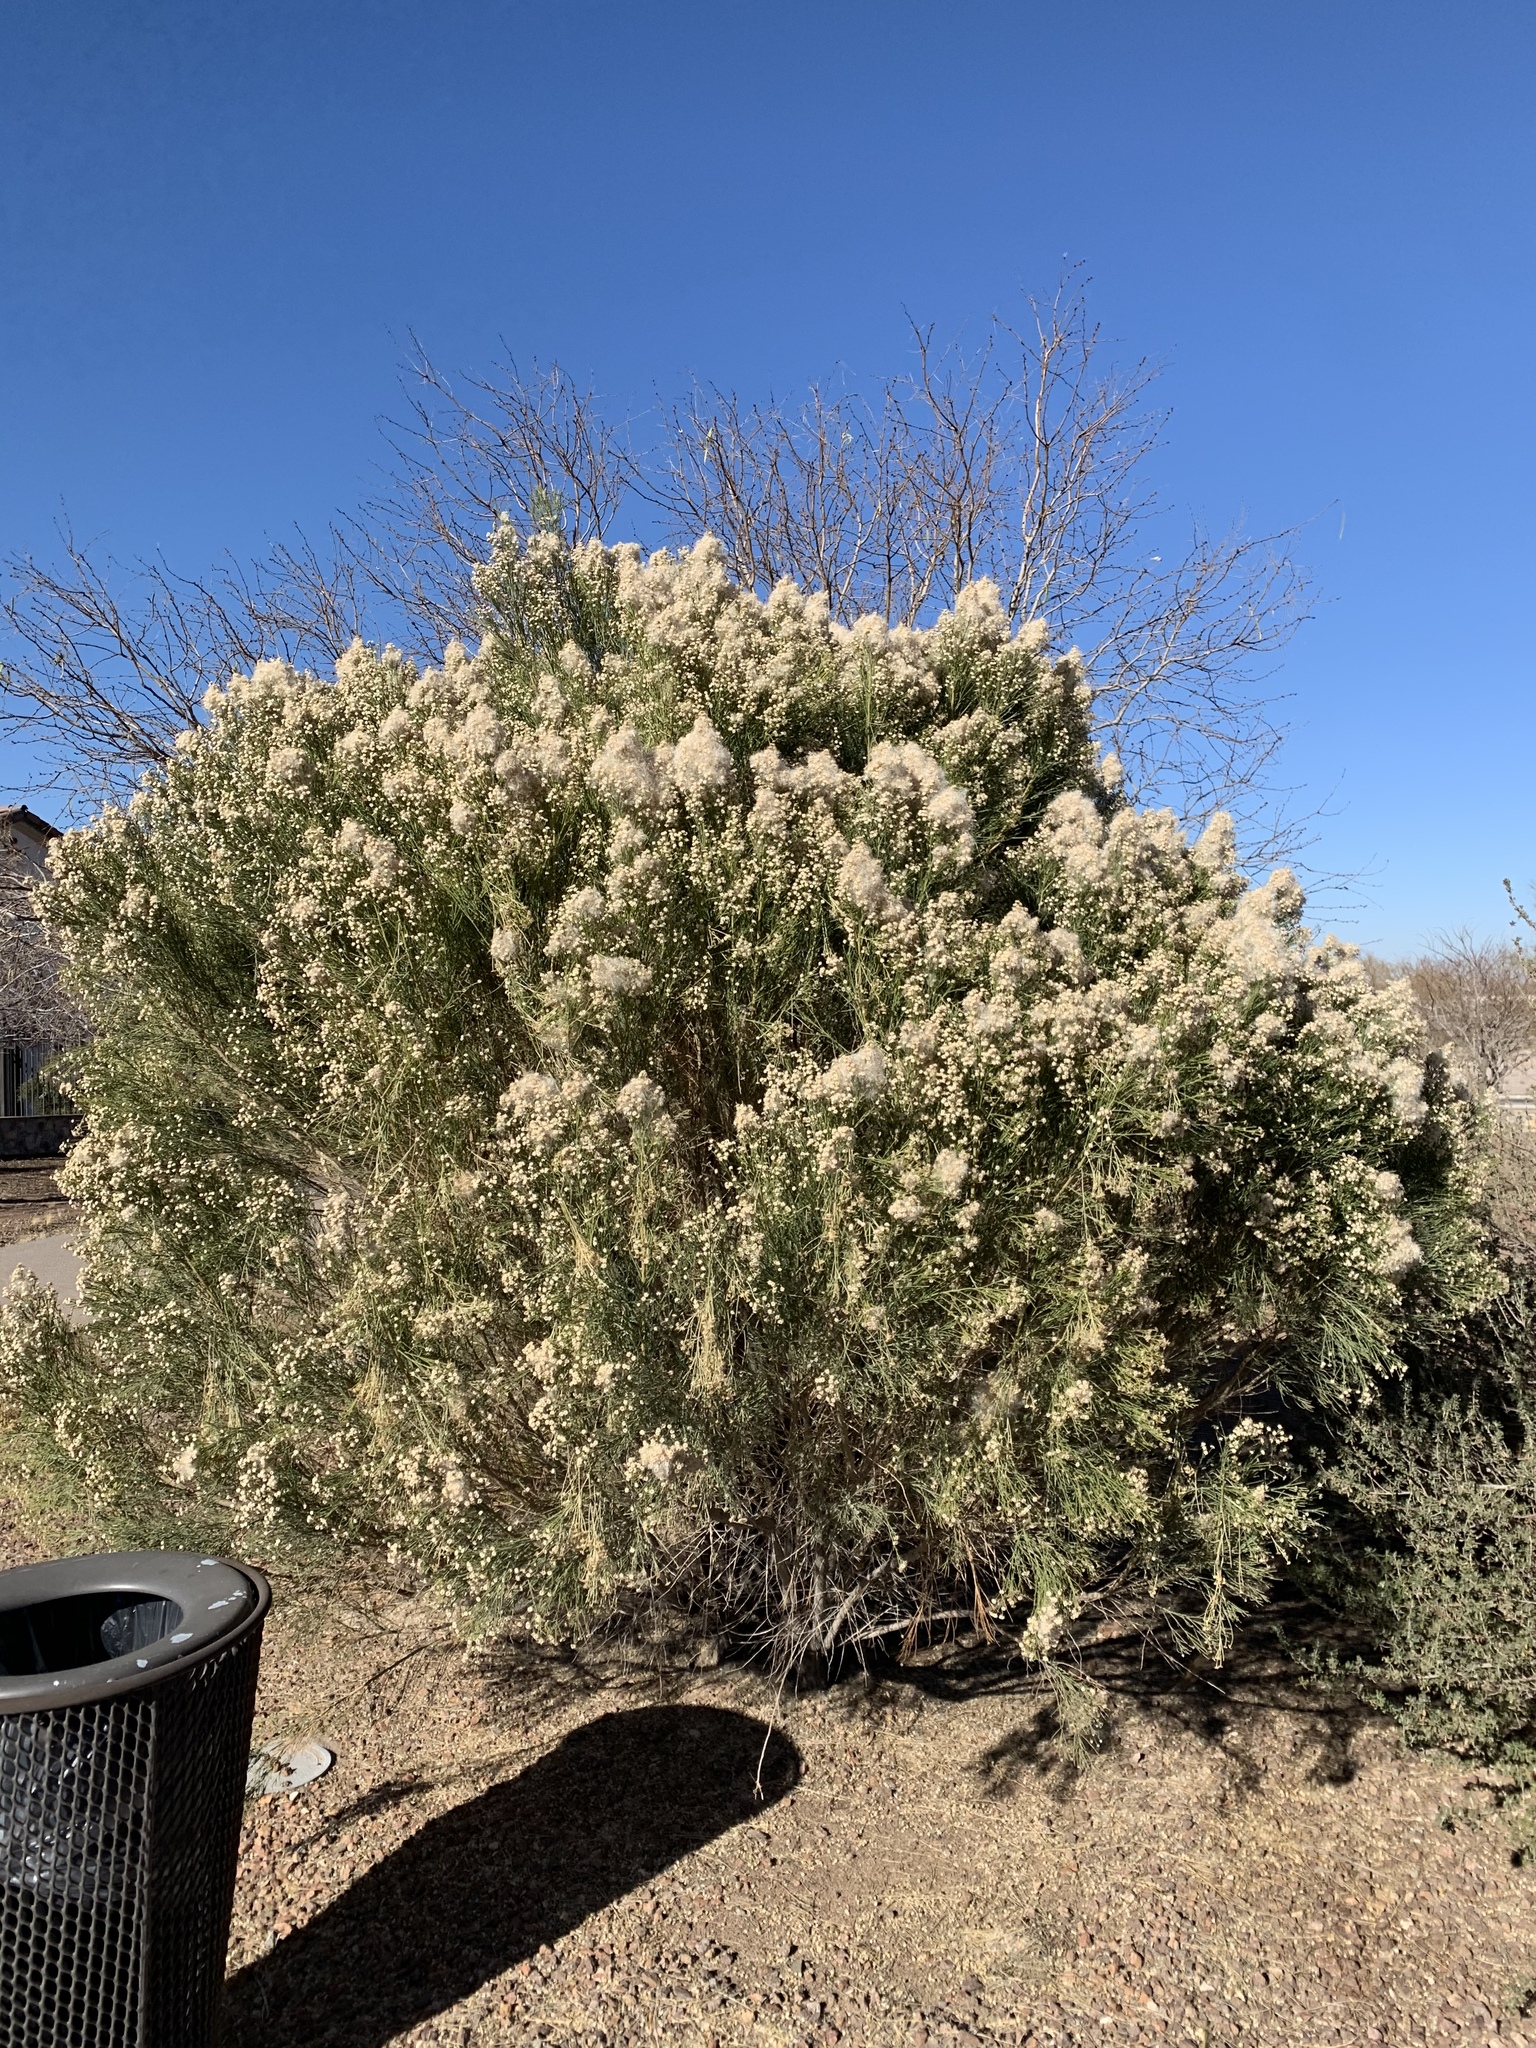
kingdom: Plantae
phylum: Tracheophyta
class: Magnoliopsida
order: Asterales
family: Asteraceae
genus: Baccharis
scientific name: Baccharis sarothroides
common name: Desert-broom
